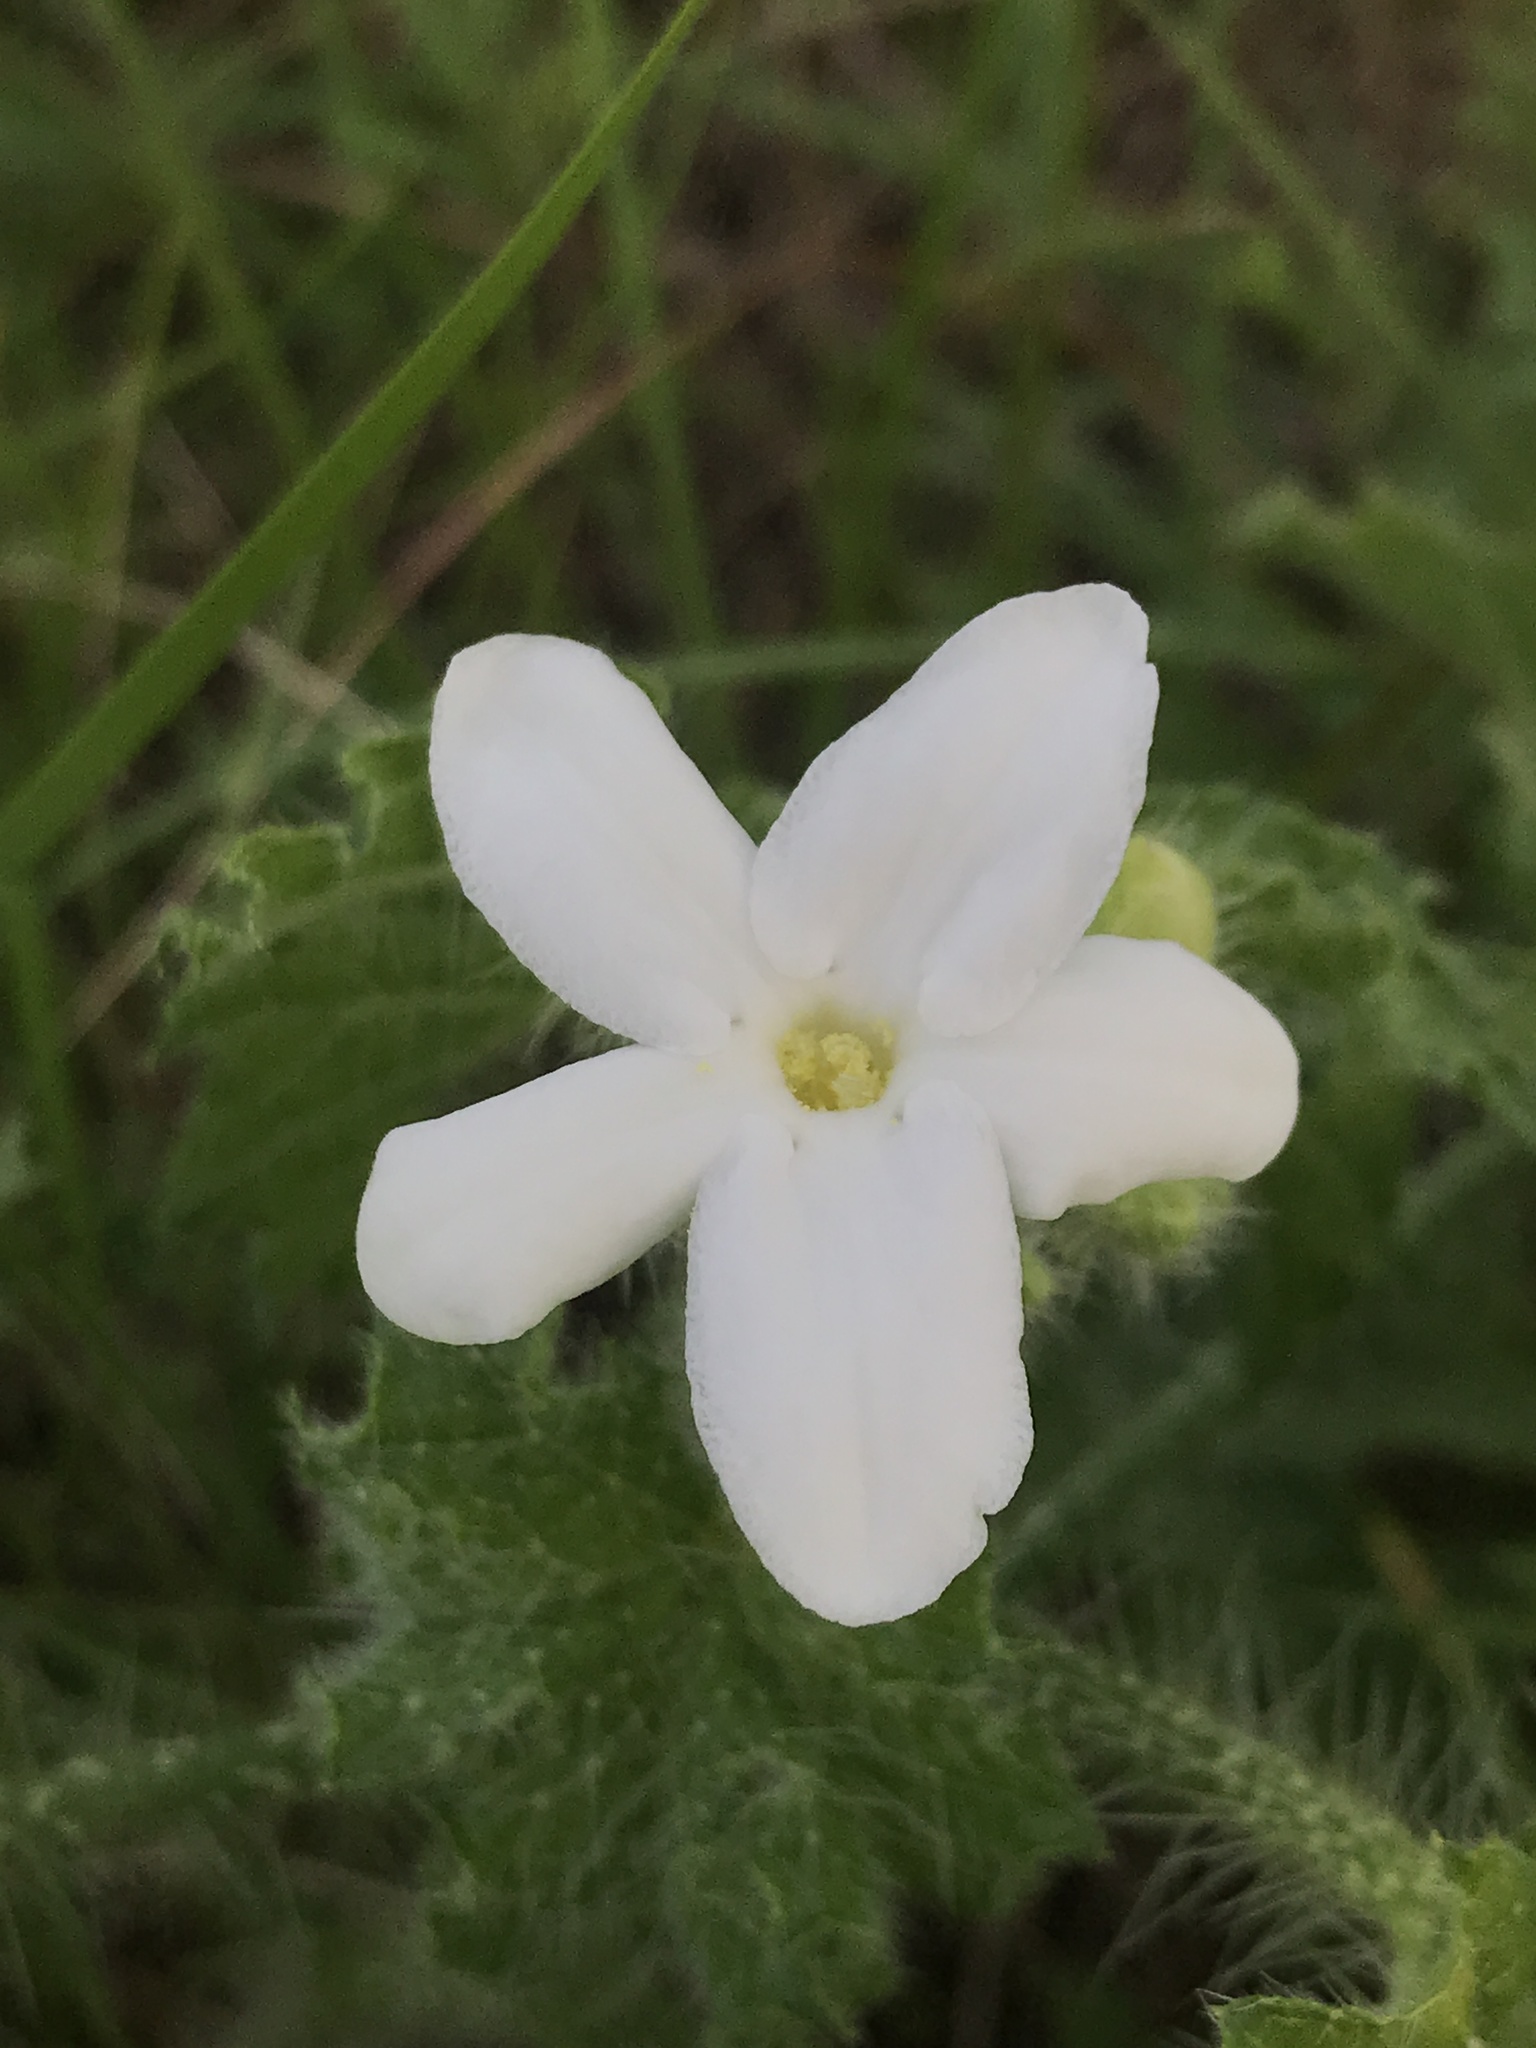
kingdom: Plantae
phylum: Tracheophyta
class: Magnoliopsida
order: Malpighiales
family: Euphorbiaceae
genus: Cnidoscolus
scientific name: Cnidoscolus texanus
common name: Texas bull-nettle
